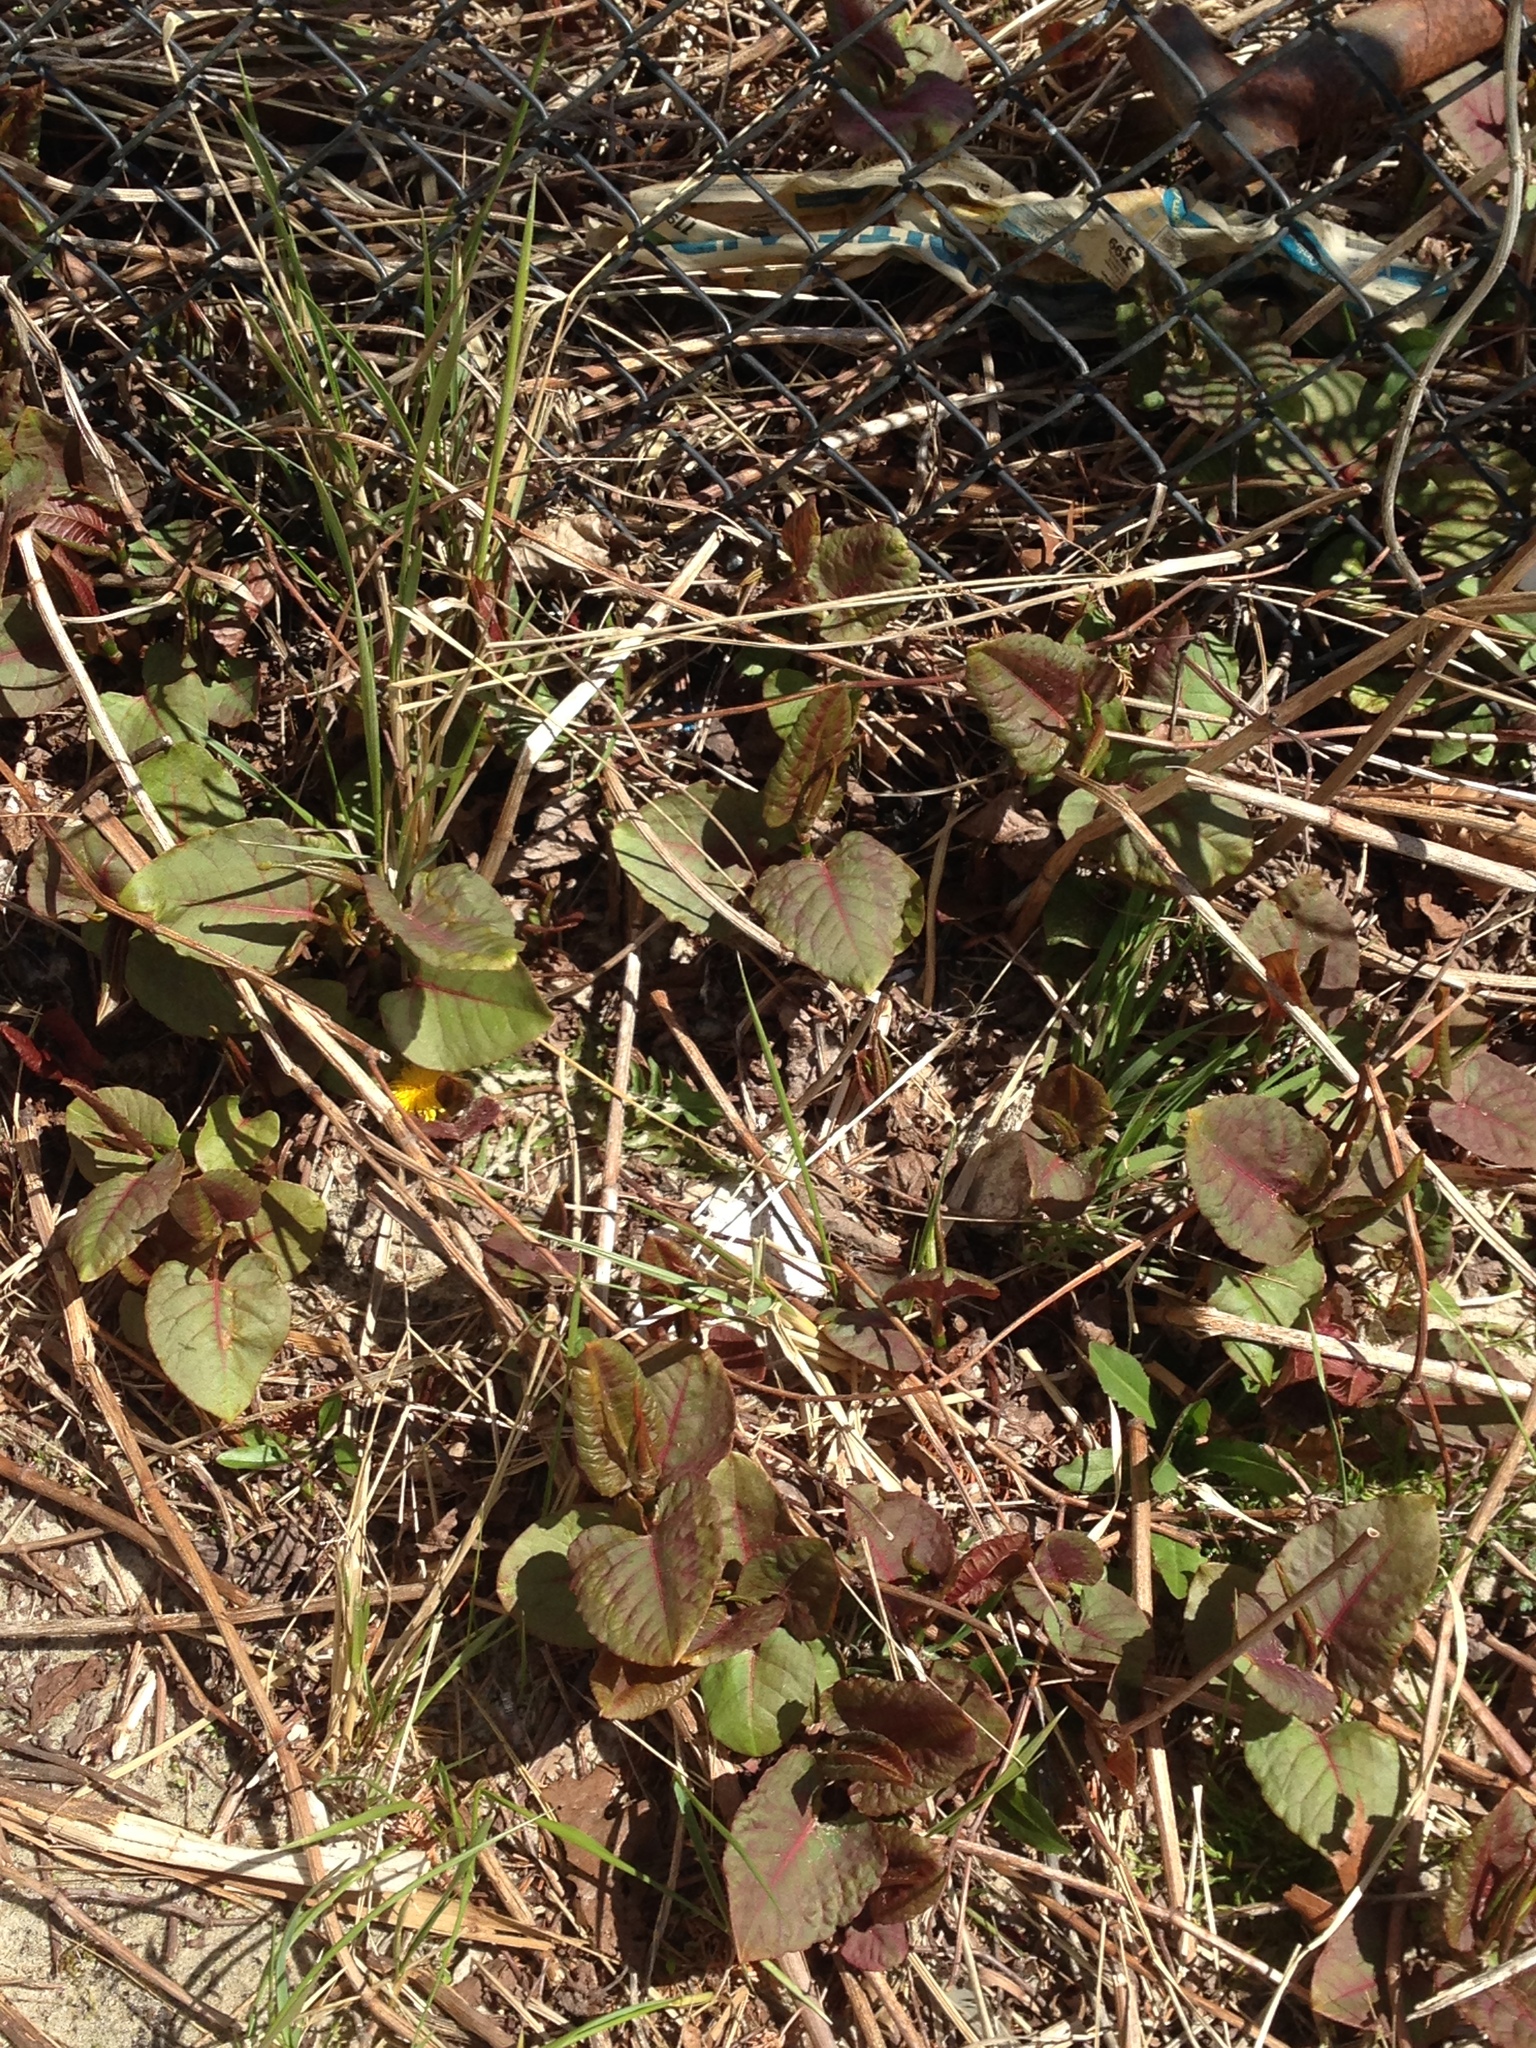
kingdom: Plantae
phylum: Tracheophyta
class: Magnoliopsida
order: Caryophyllales
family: Polygonaceae
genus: Reynoutria
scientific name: Reynoutria japonica
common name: Japanese knotweed
